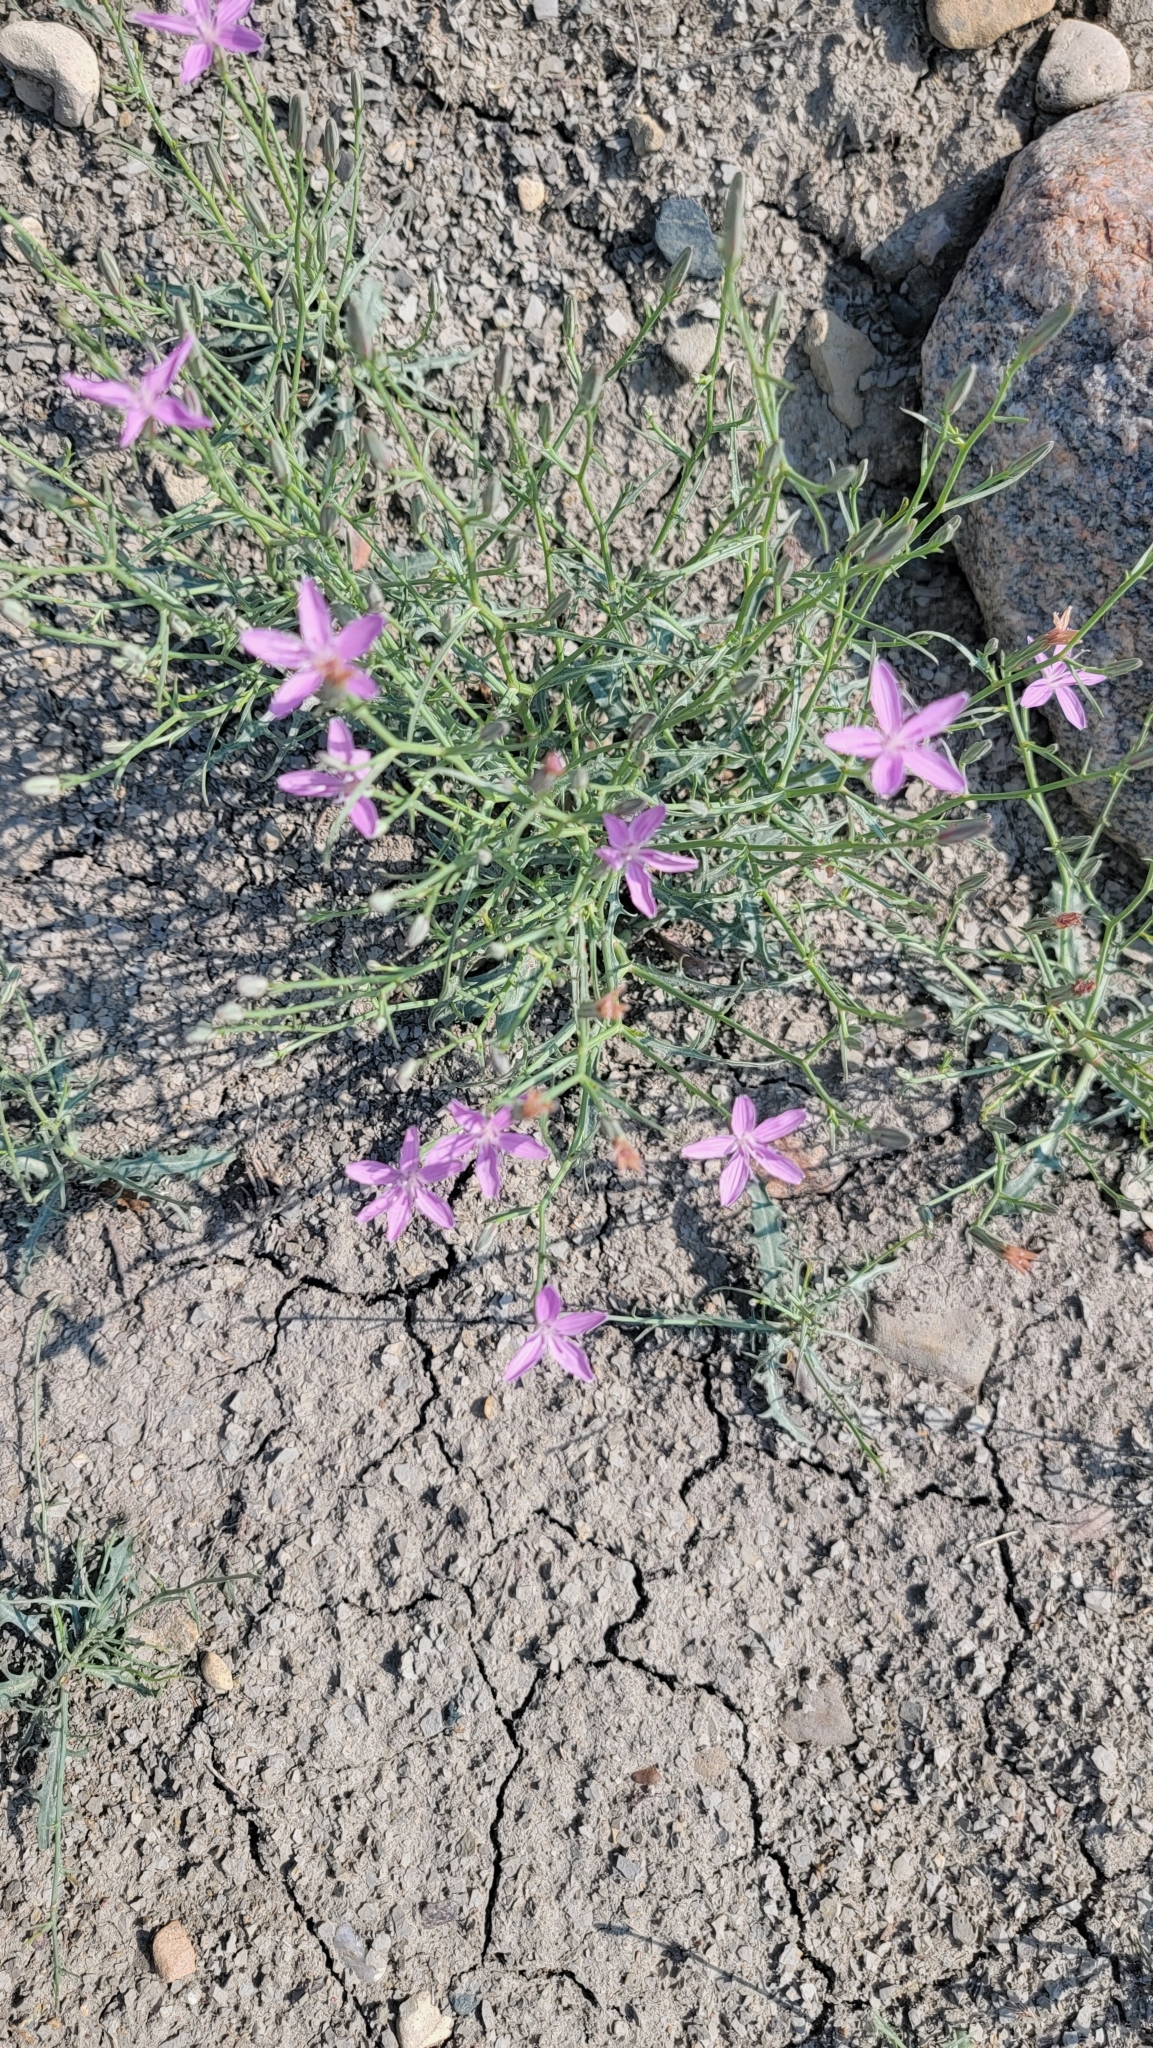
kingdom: Plantae
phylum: Tracheophyta
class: Magnoliopsida
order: Asterales
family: Asteraceae
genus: Stephanomeria
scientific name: Stephanomeria runcinata
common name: Desert wirelettuce
